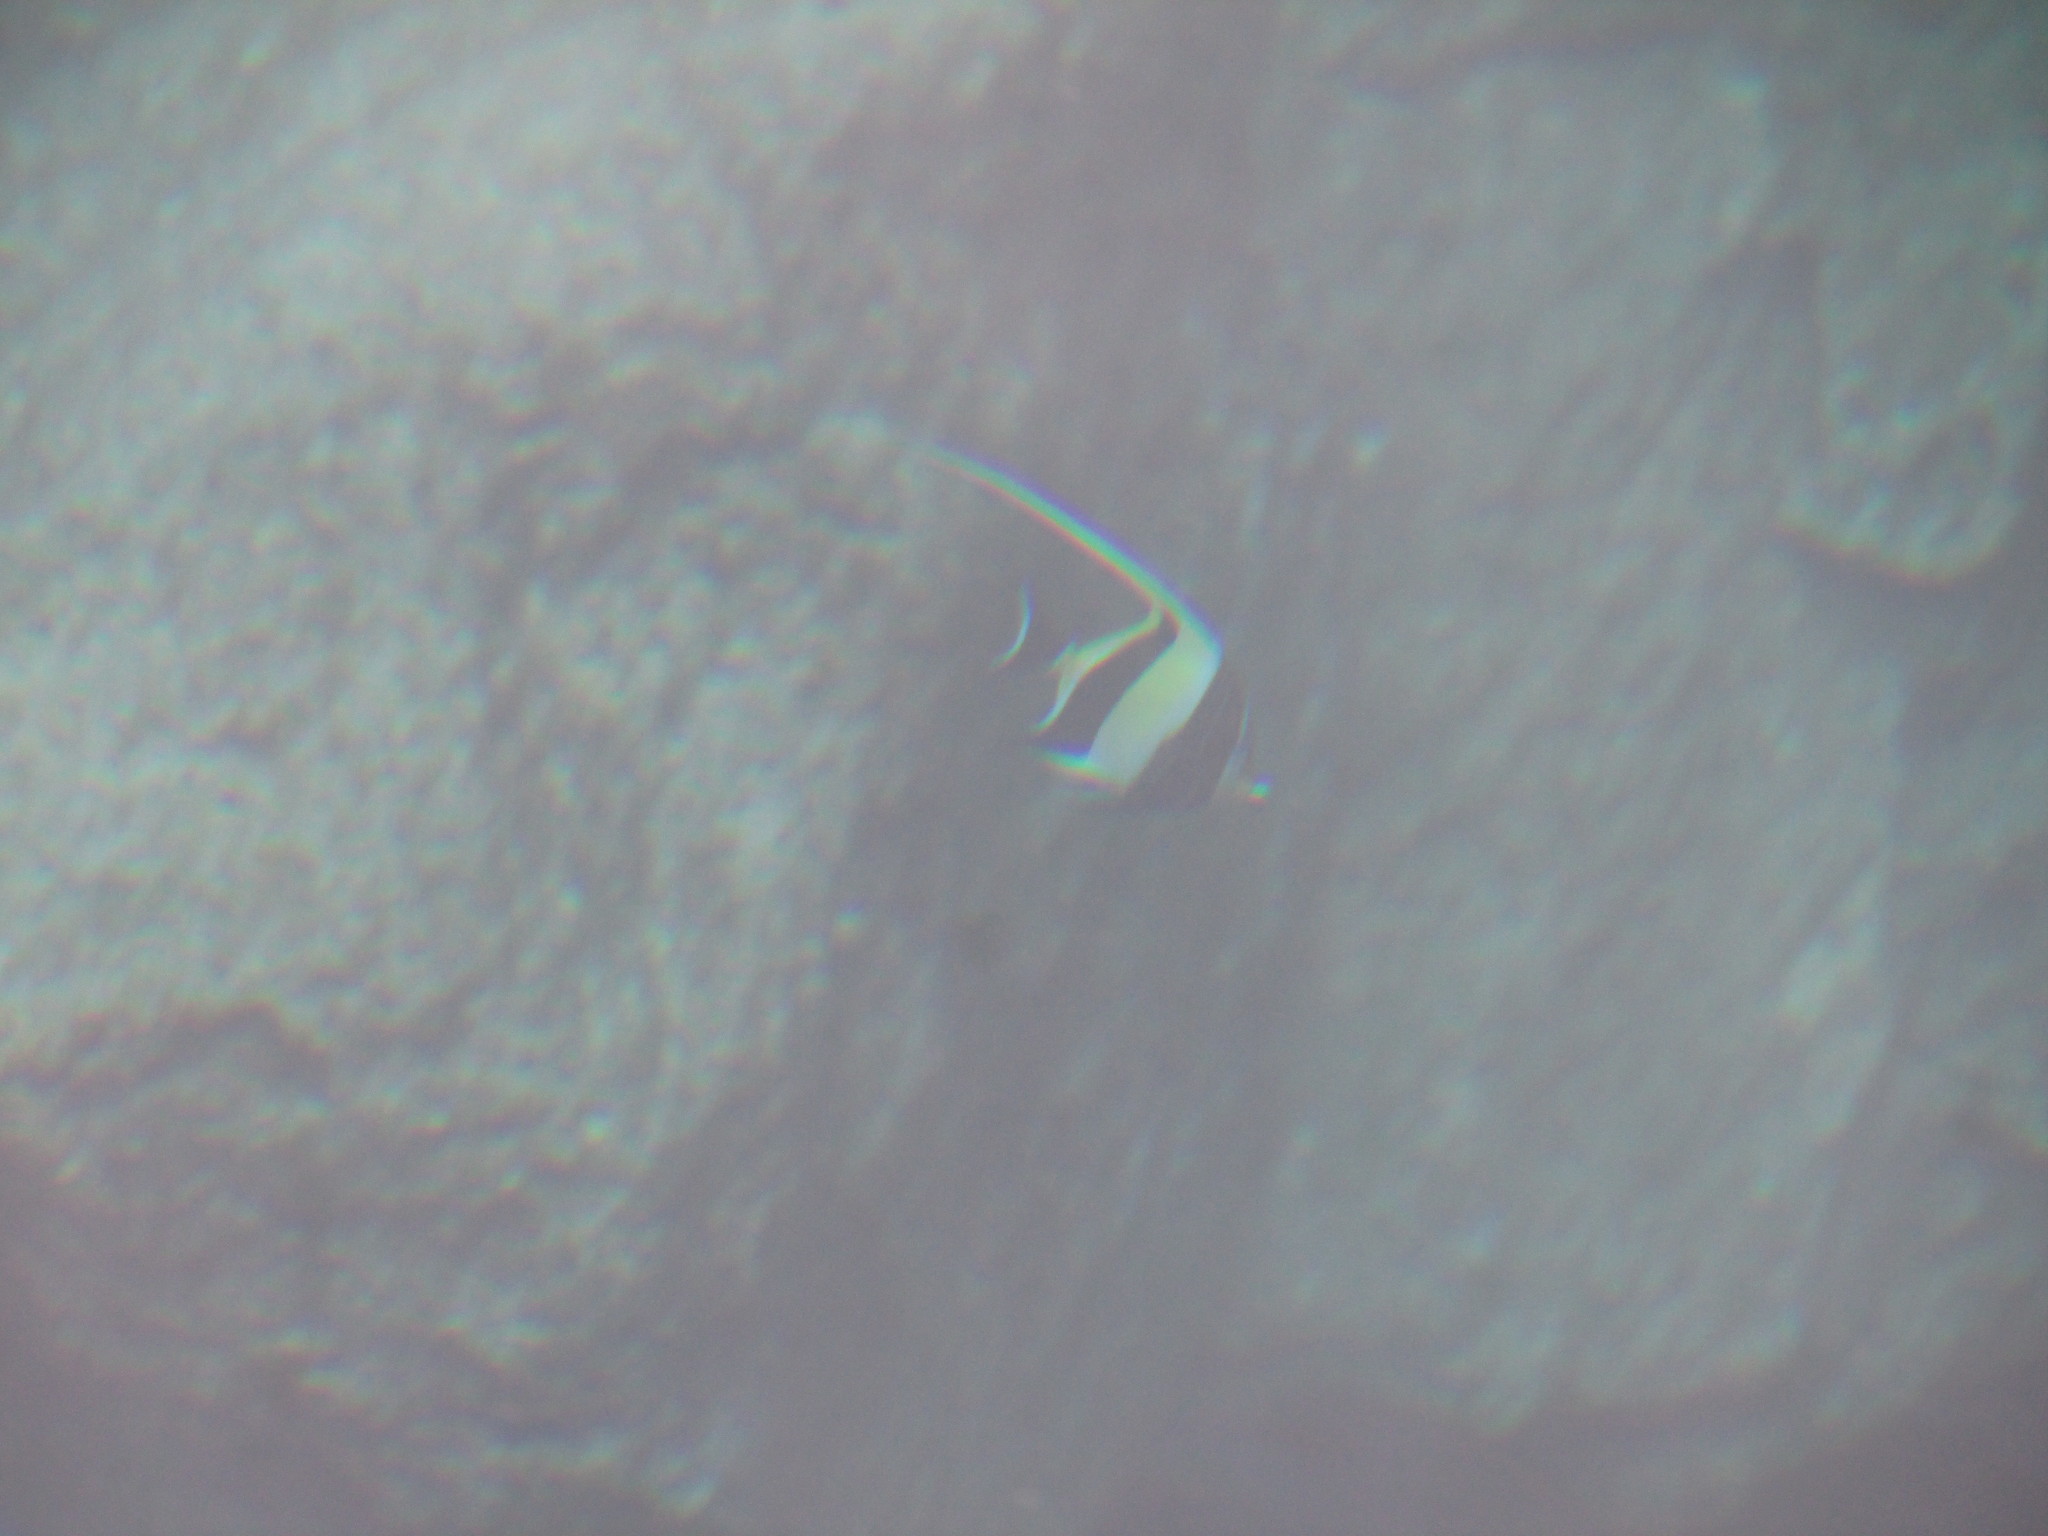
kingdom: Animalia
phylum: Chordata
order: Perciformes
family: Zanclidae
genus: Zanclus
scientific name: Zanclus cornutus
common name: Moorish idol
